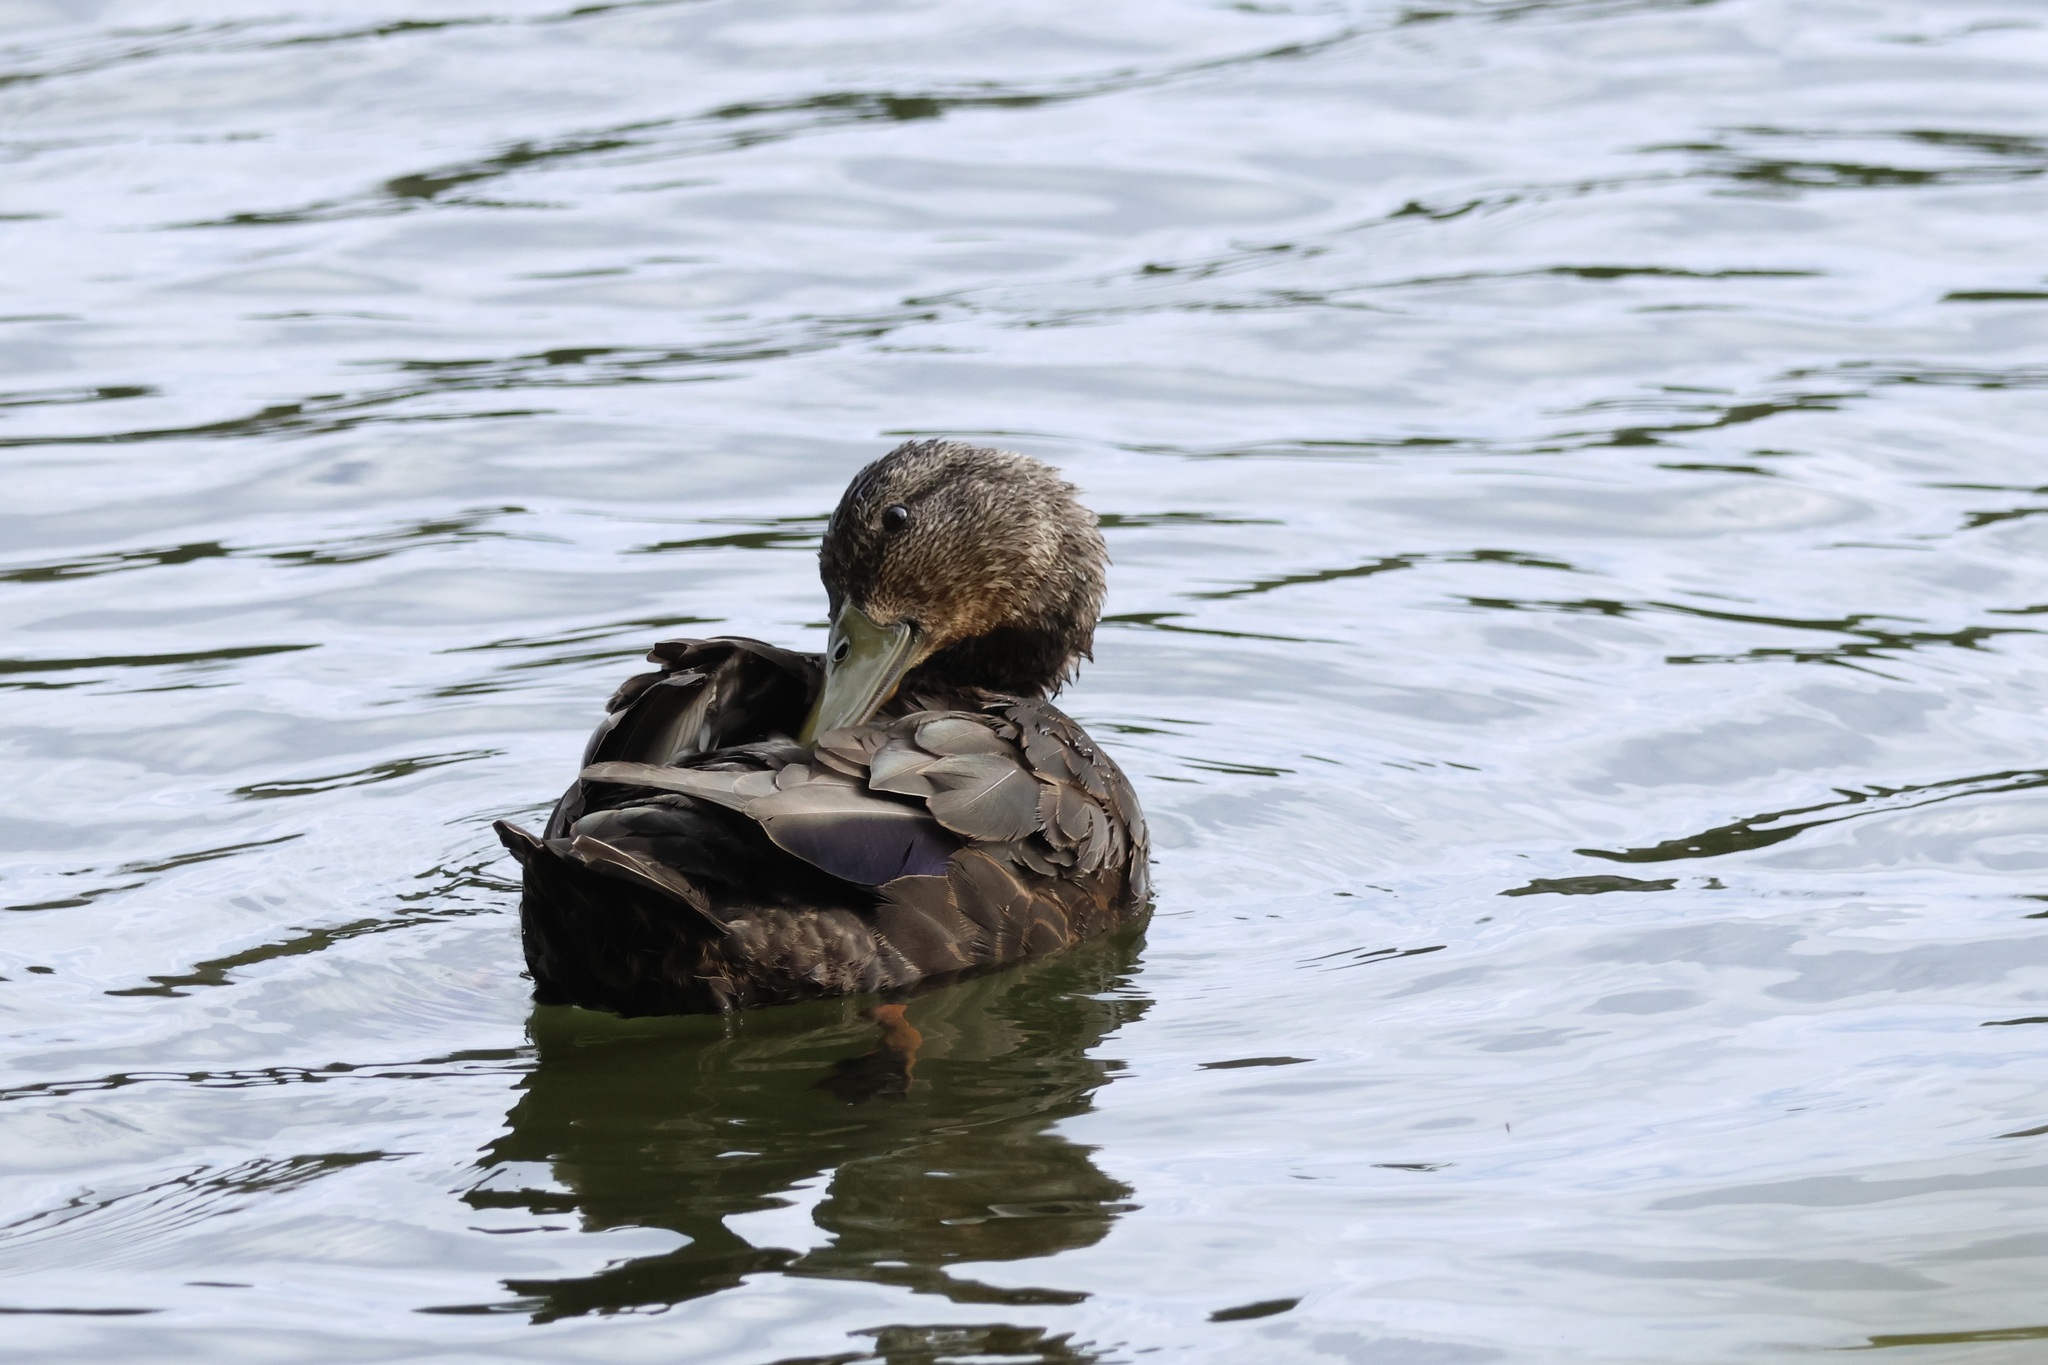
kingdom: Animalia
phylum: Chordata
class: Aves
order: Anseriformes
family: Anatidae
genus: Anas
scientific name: Anas rubripes
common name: American black duck
